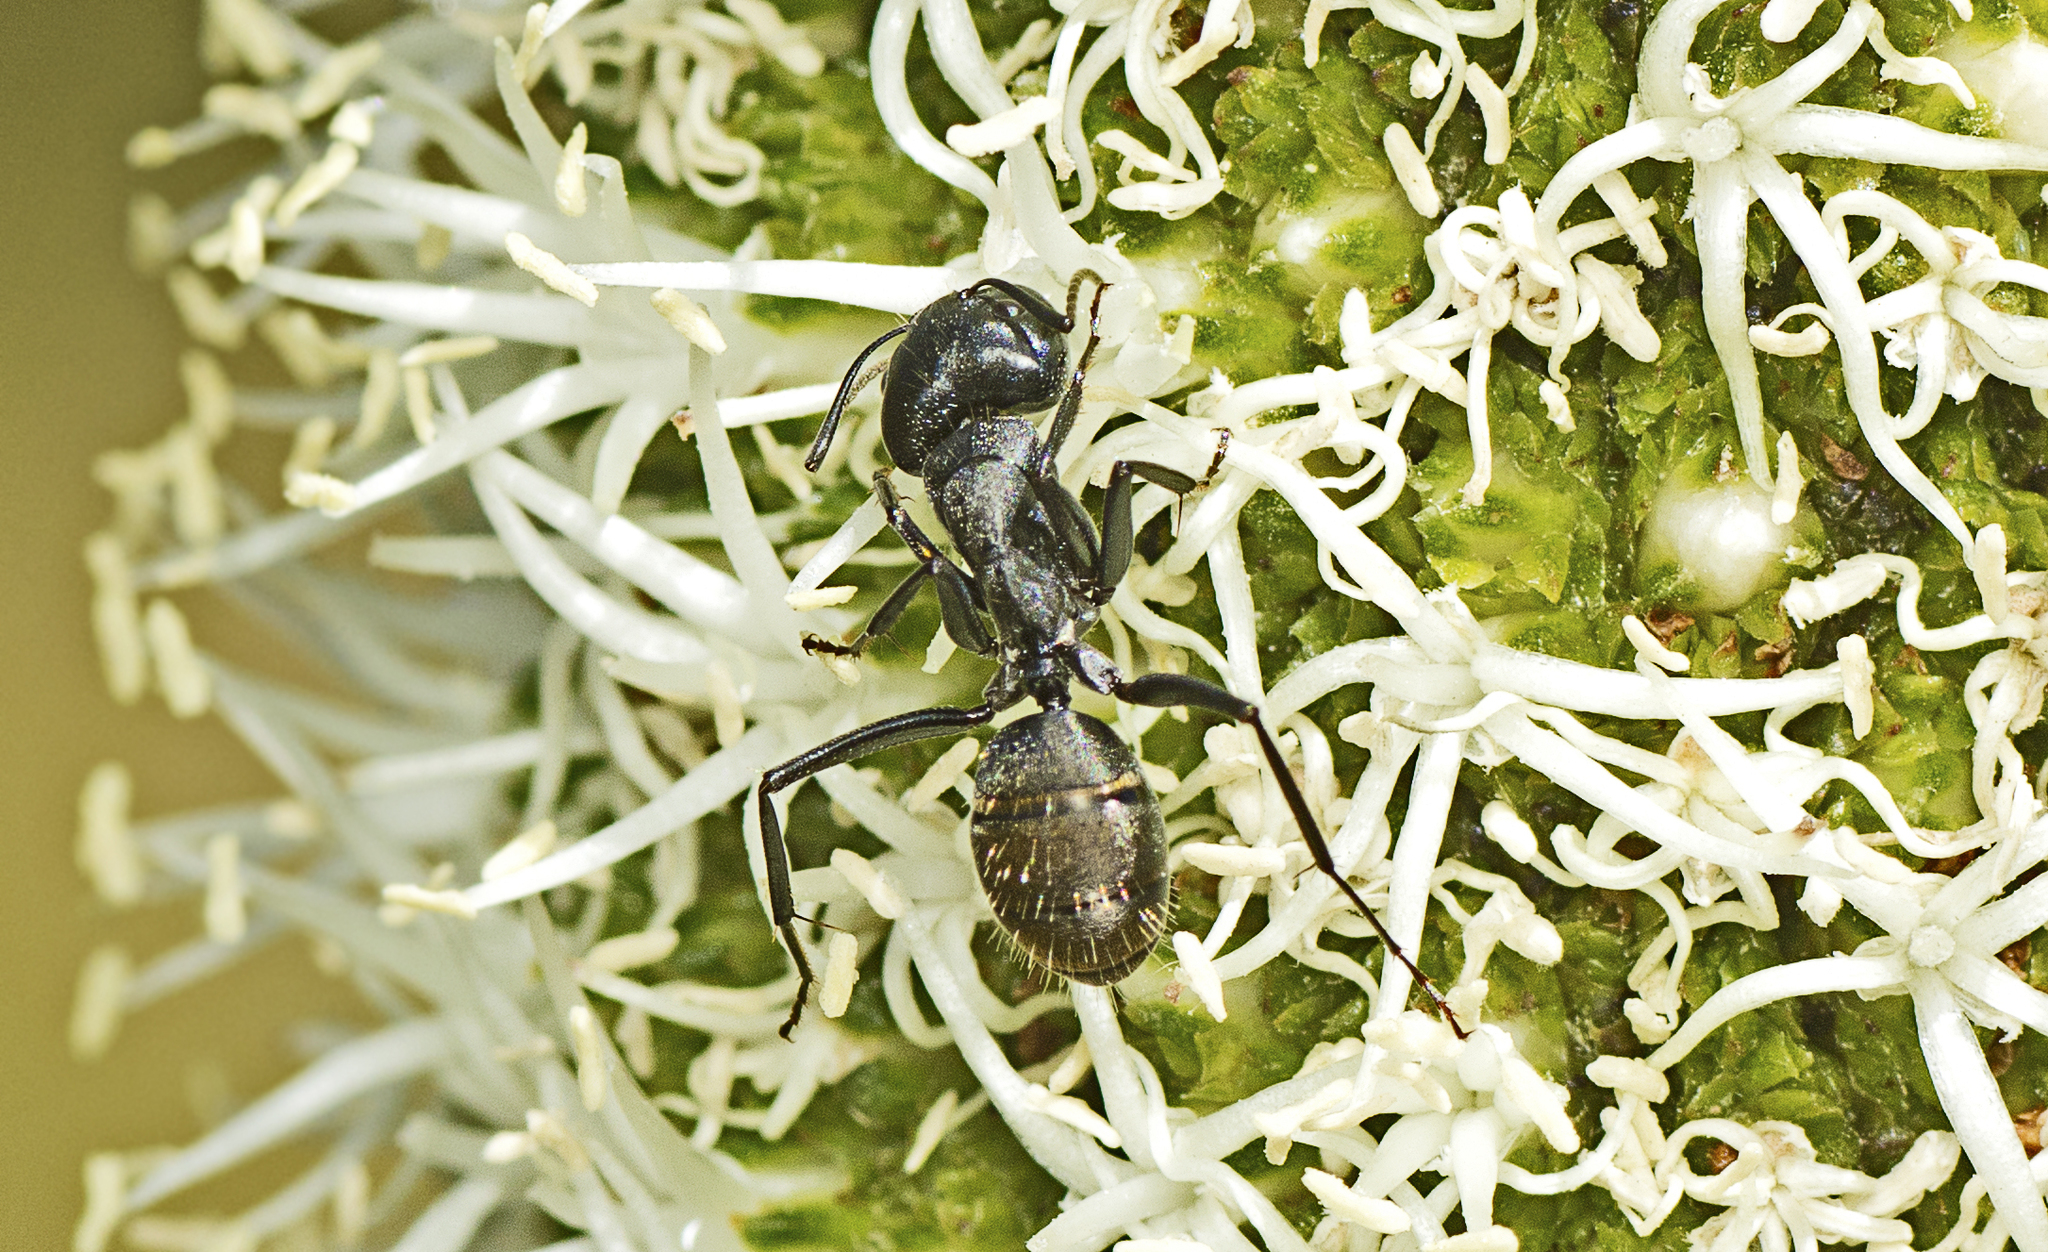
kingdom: Animalia
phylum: Arthropoda
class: Insecta
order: Hymenoptera
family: Formicidae
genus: Camponotus
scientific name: Camponotus aeneopilosus
